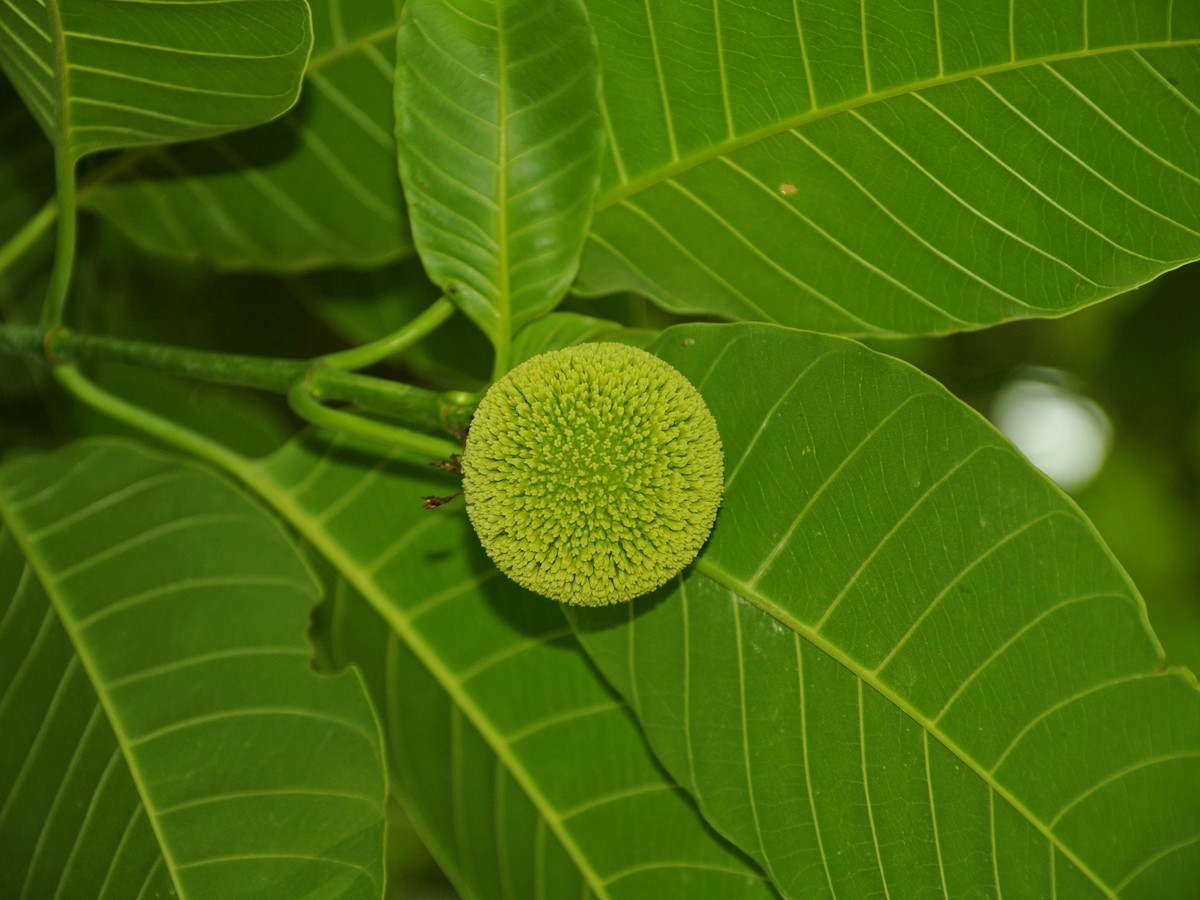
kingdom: Plantae
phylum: Tracheophyta
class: Magnoliopsida
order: Gentianales
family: Rubiaceae
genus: Neolamarckia
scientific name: Neolamarckia cadamba
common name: Leichhardt-pine
